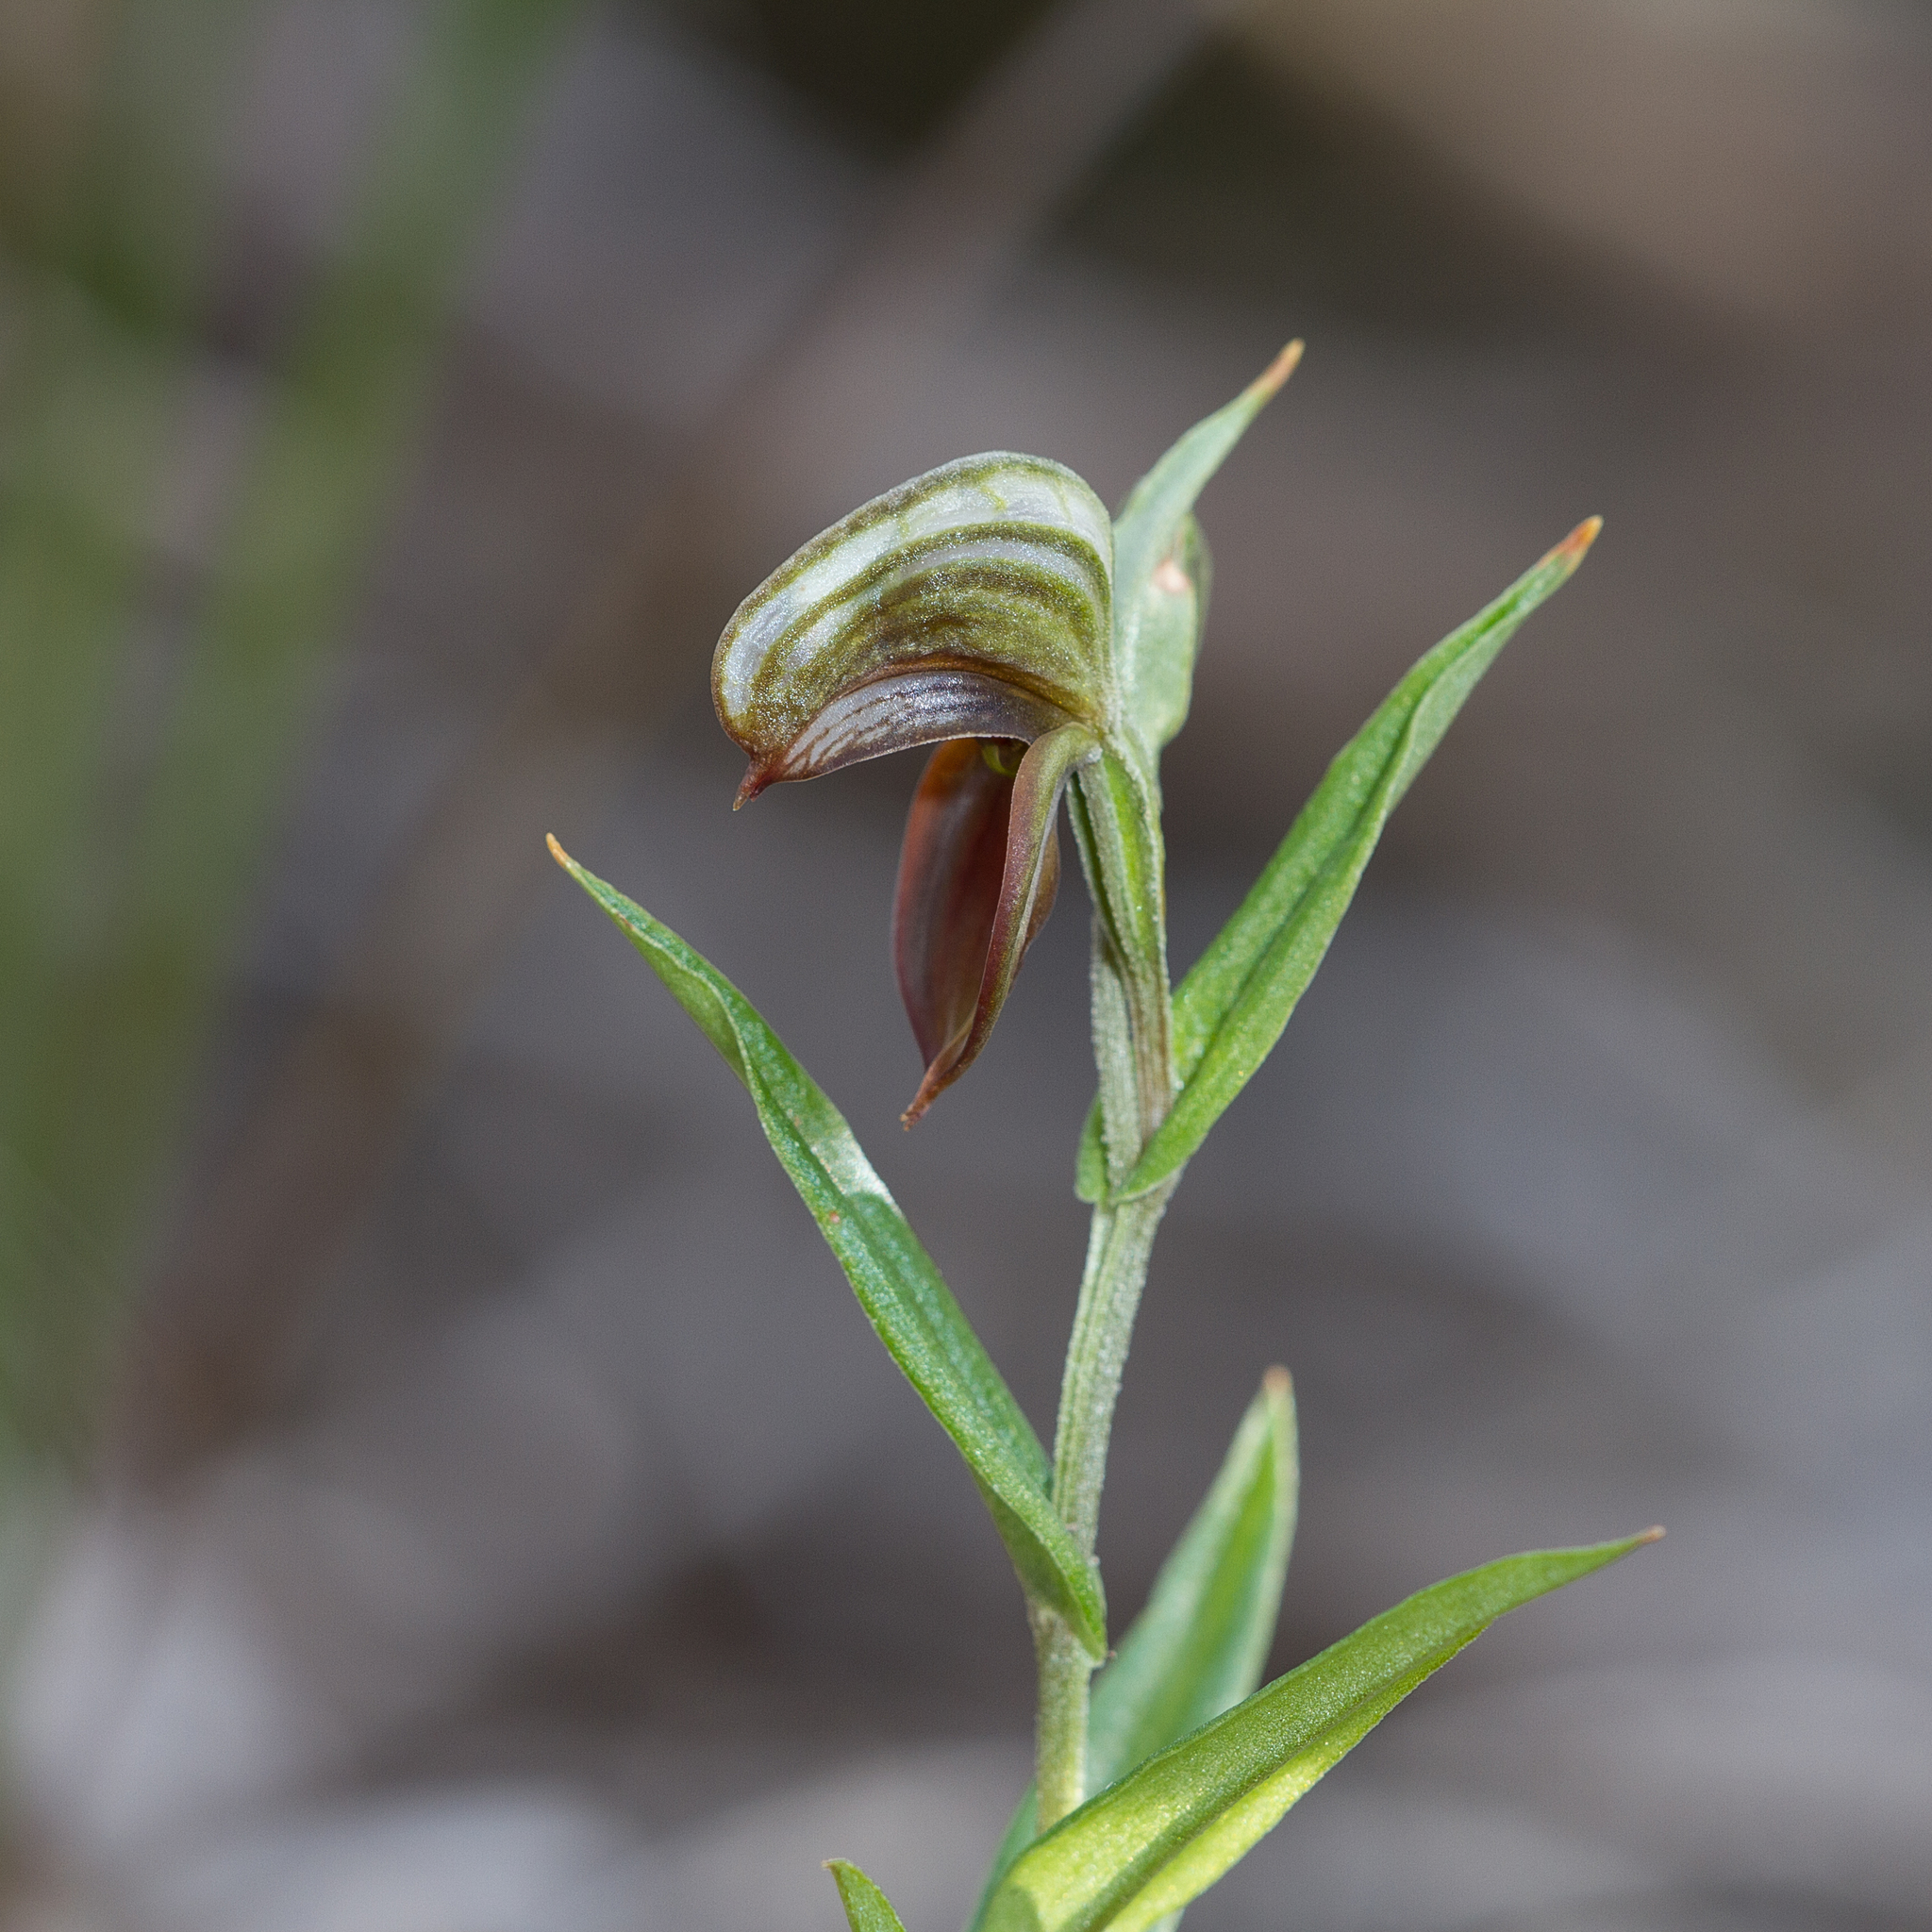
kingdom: Plantae
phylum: Tracheophyta
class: Liliopsida
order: Asparagales
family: Orchidaceae
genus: Pterostylis
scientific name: Pterostylis sanguinea
